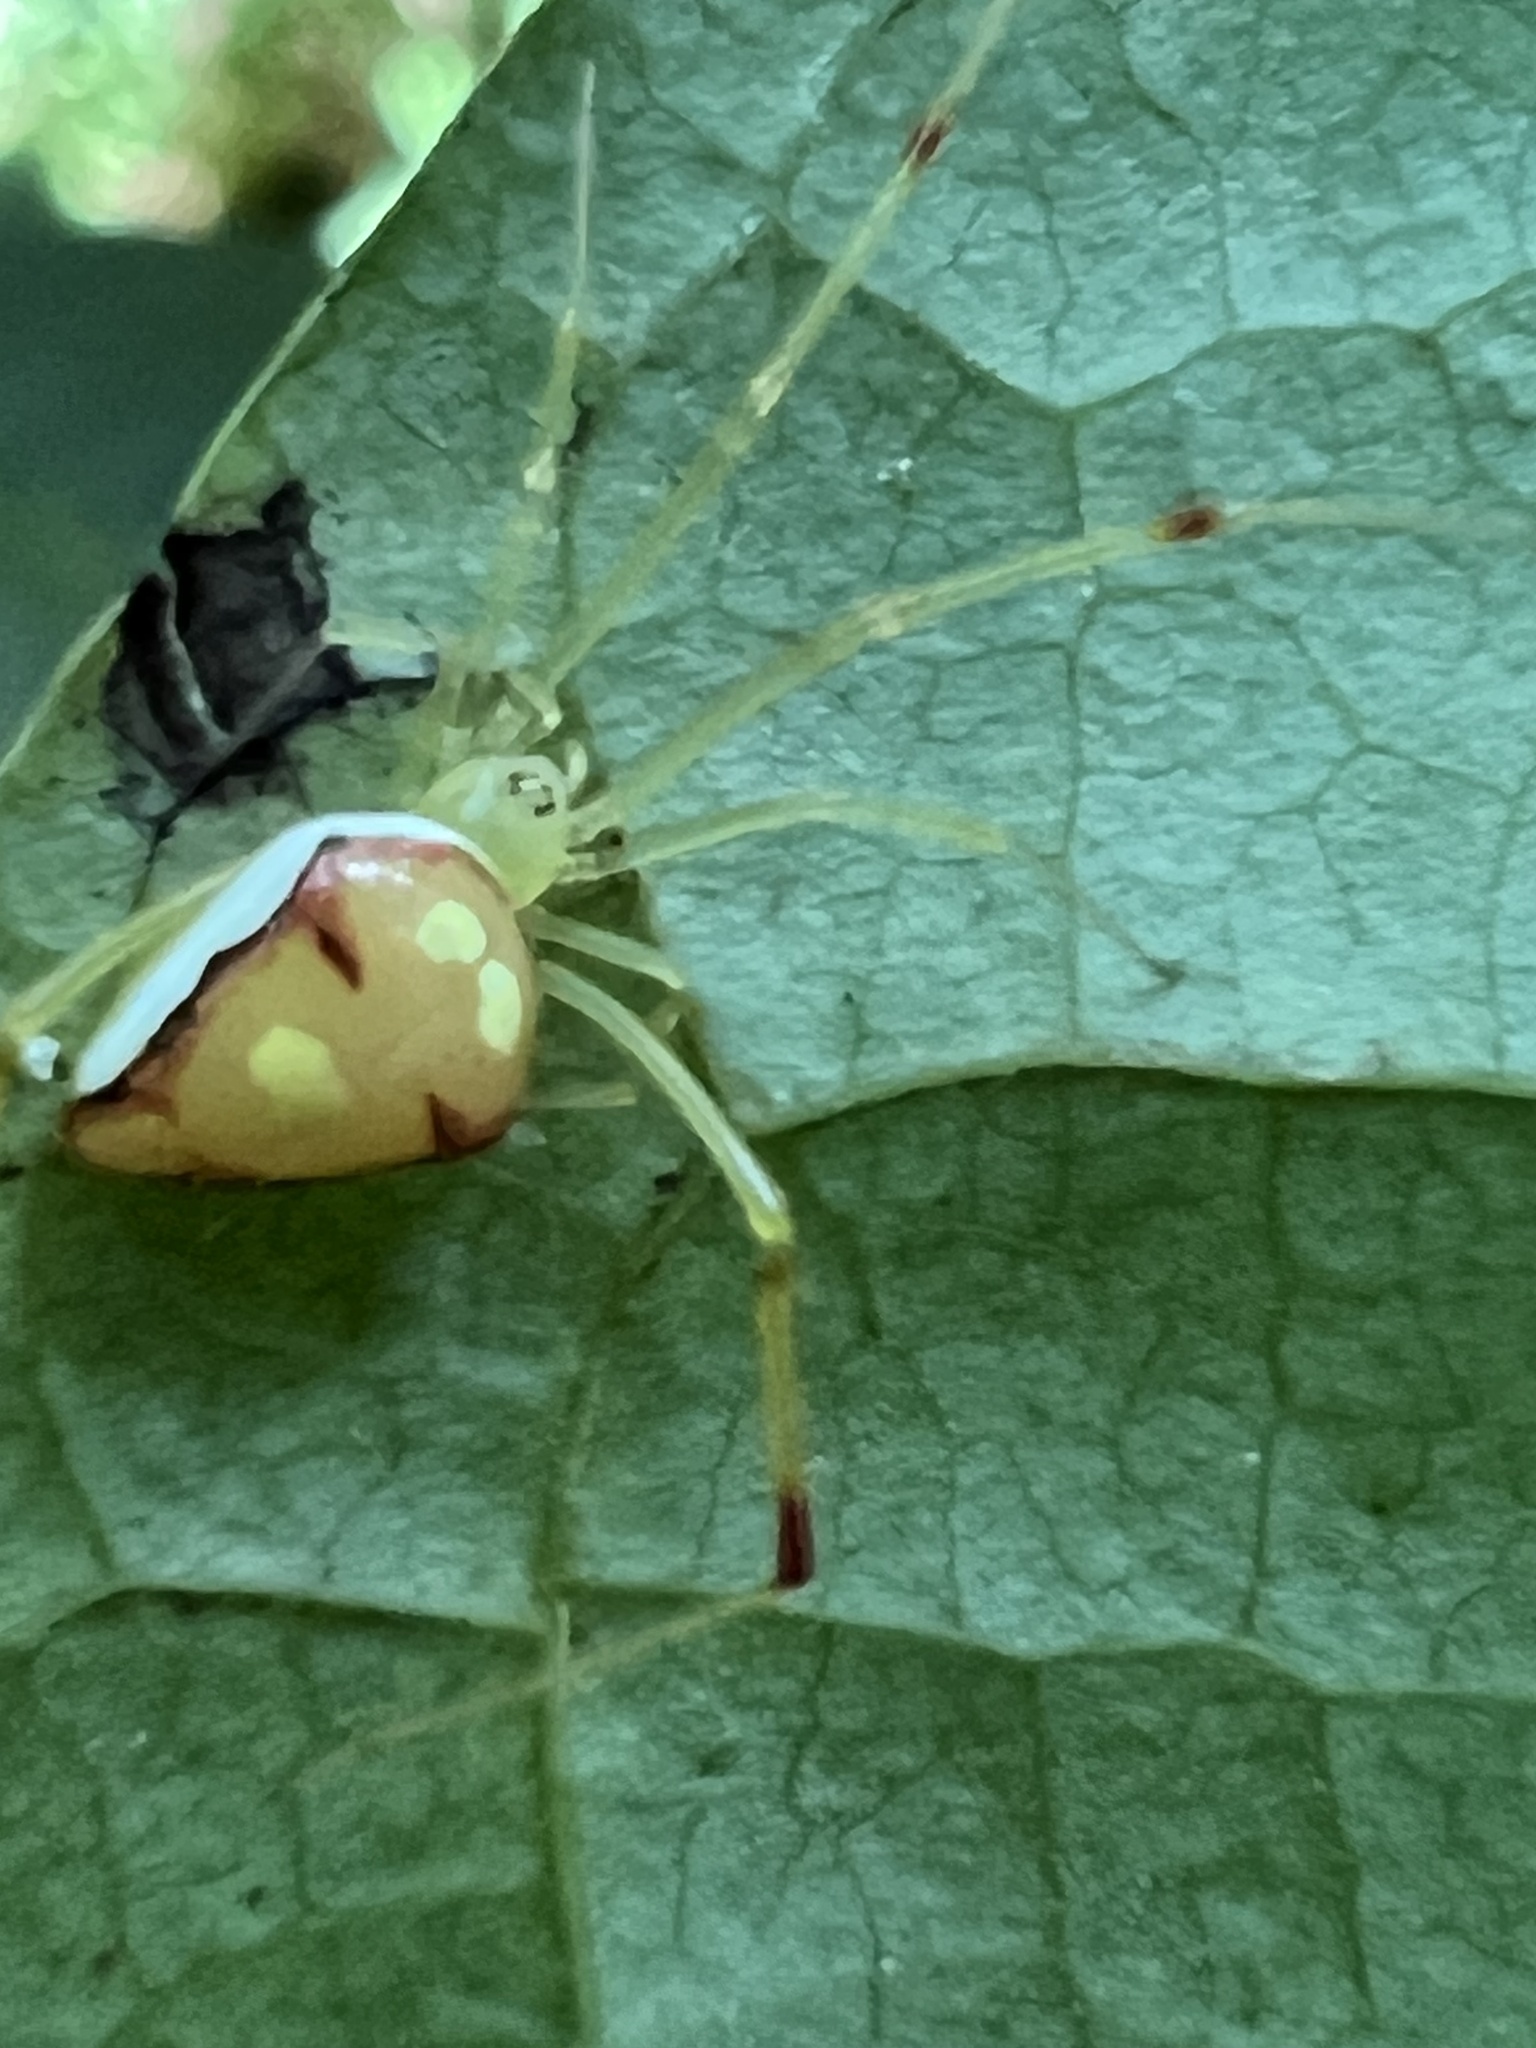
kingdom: Animalia
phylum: Arthropoda
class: Arachnida
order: Araneae
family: Theridiidae
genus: Spintharus
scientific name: Spintharus flavidus
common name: Cobweb spiders
